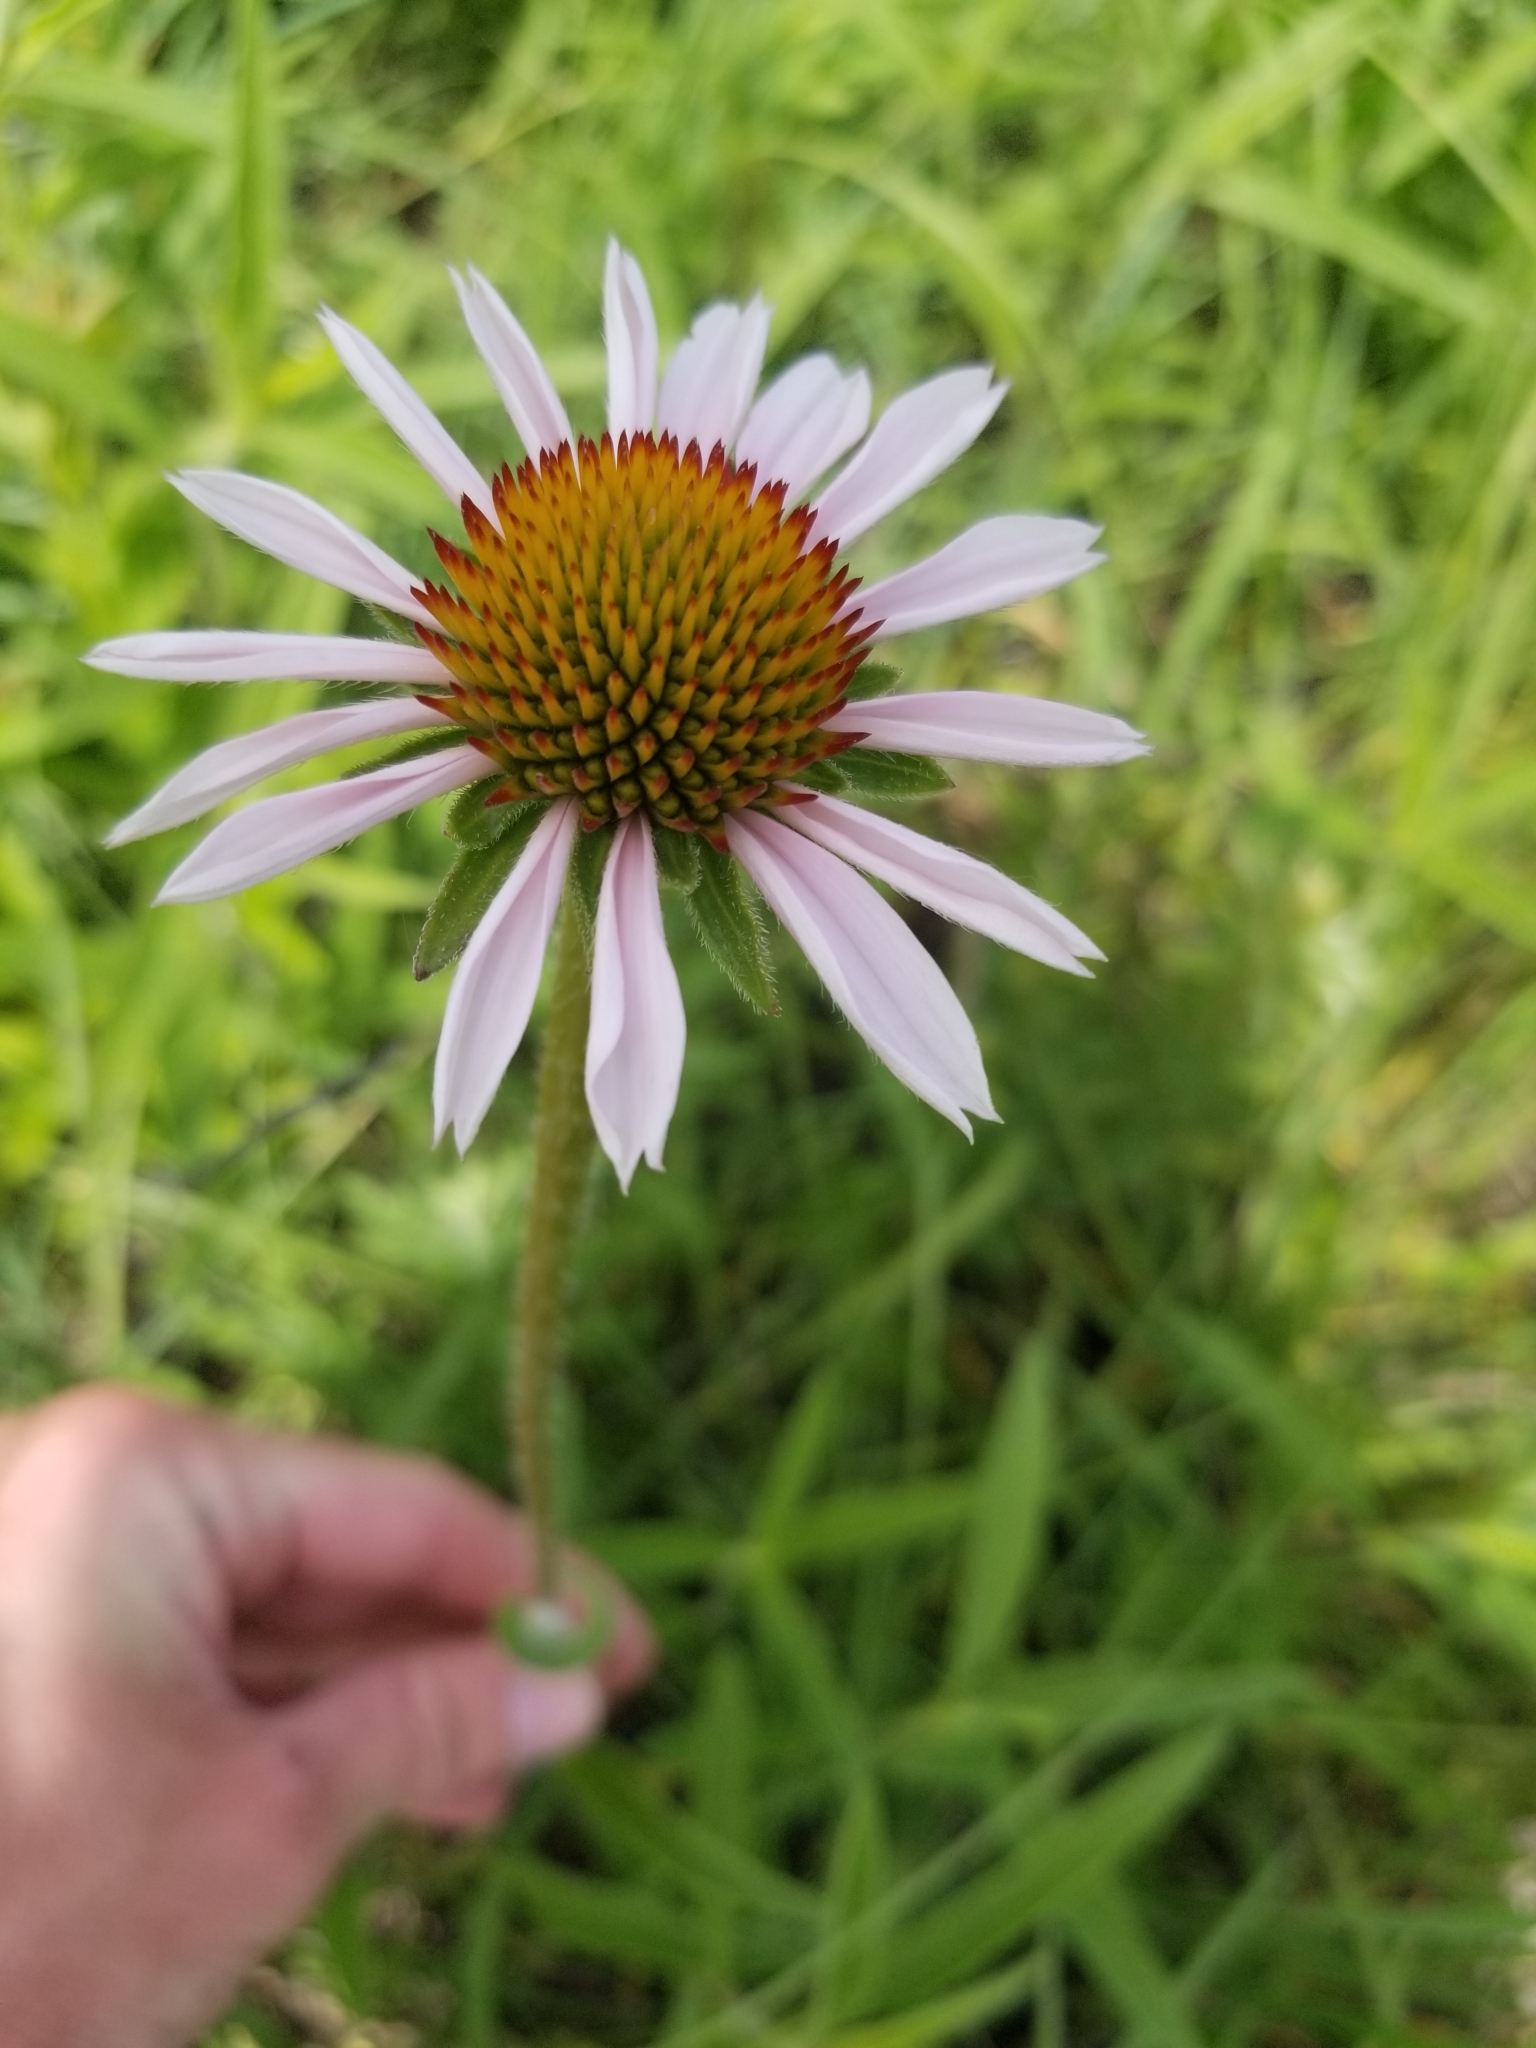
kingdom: Plantae
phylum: Tracheophyta
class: Magnoliopsida
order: Asterales
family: Asteraceae
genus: Echinacea
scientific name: Echinacea angustifolia
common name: Black-sampson echinacea
